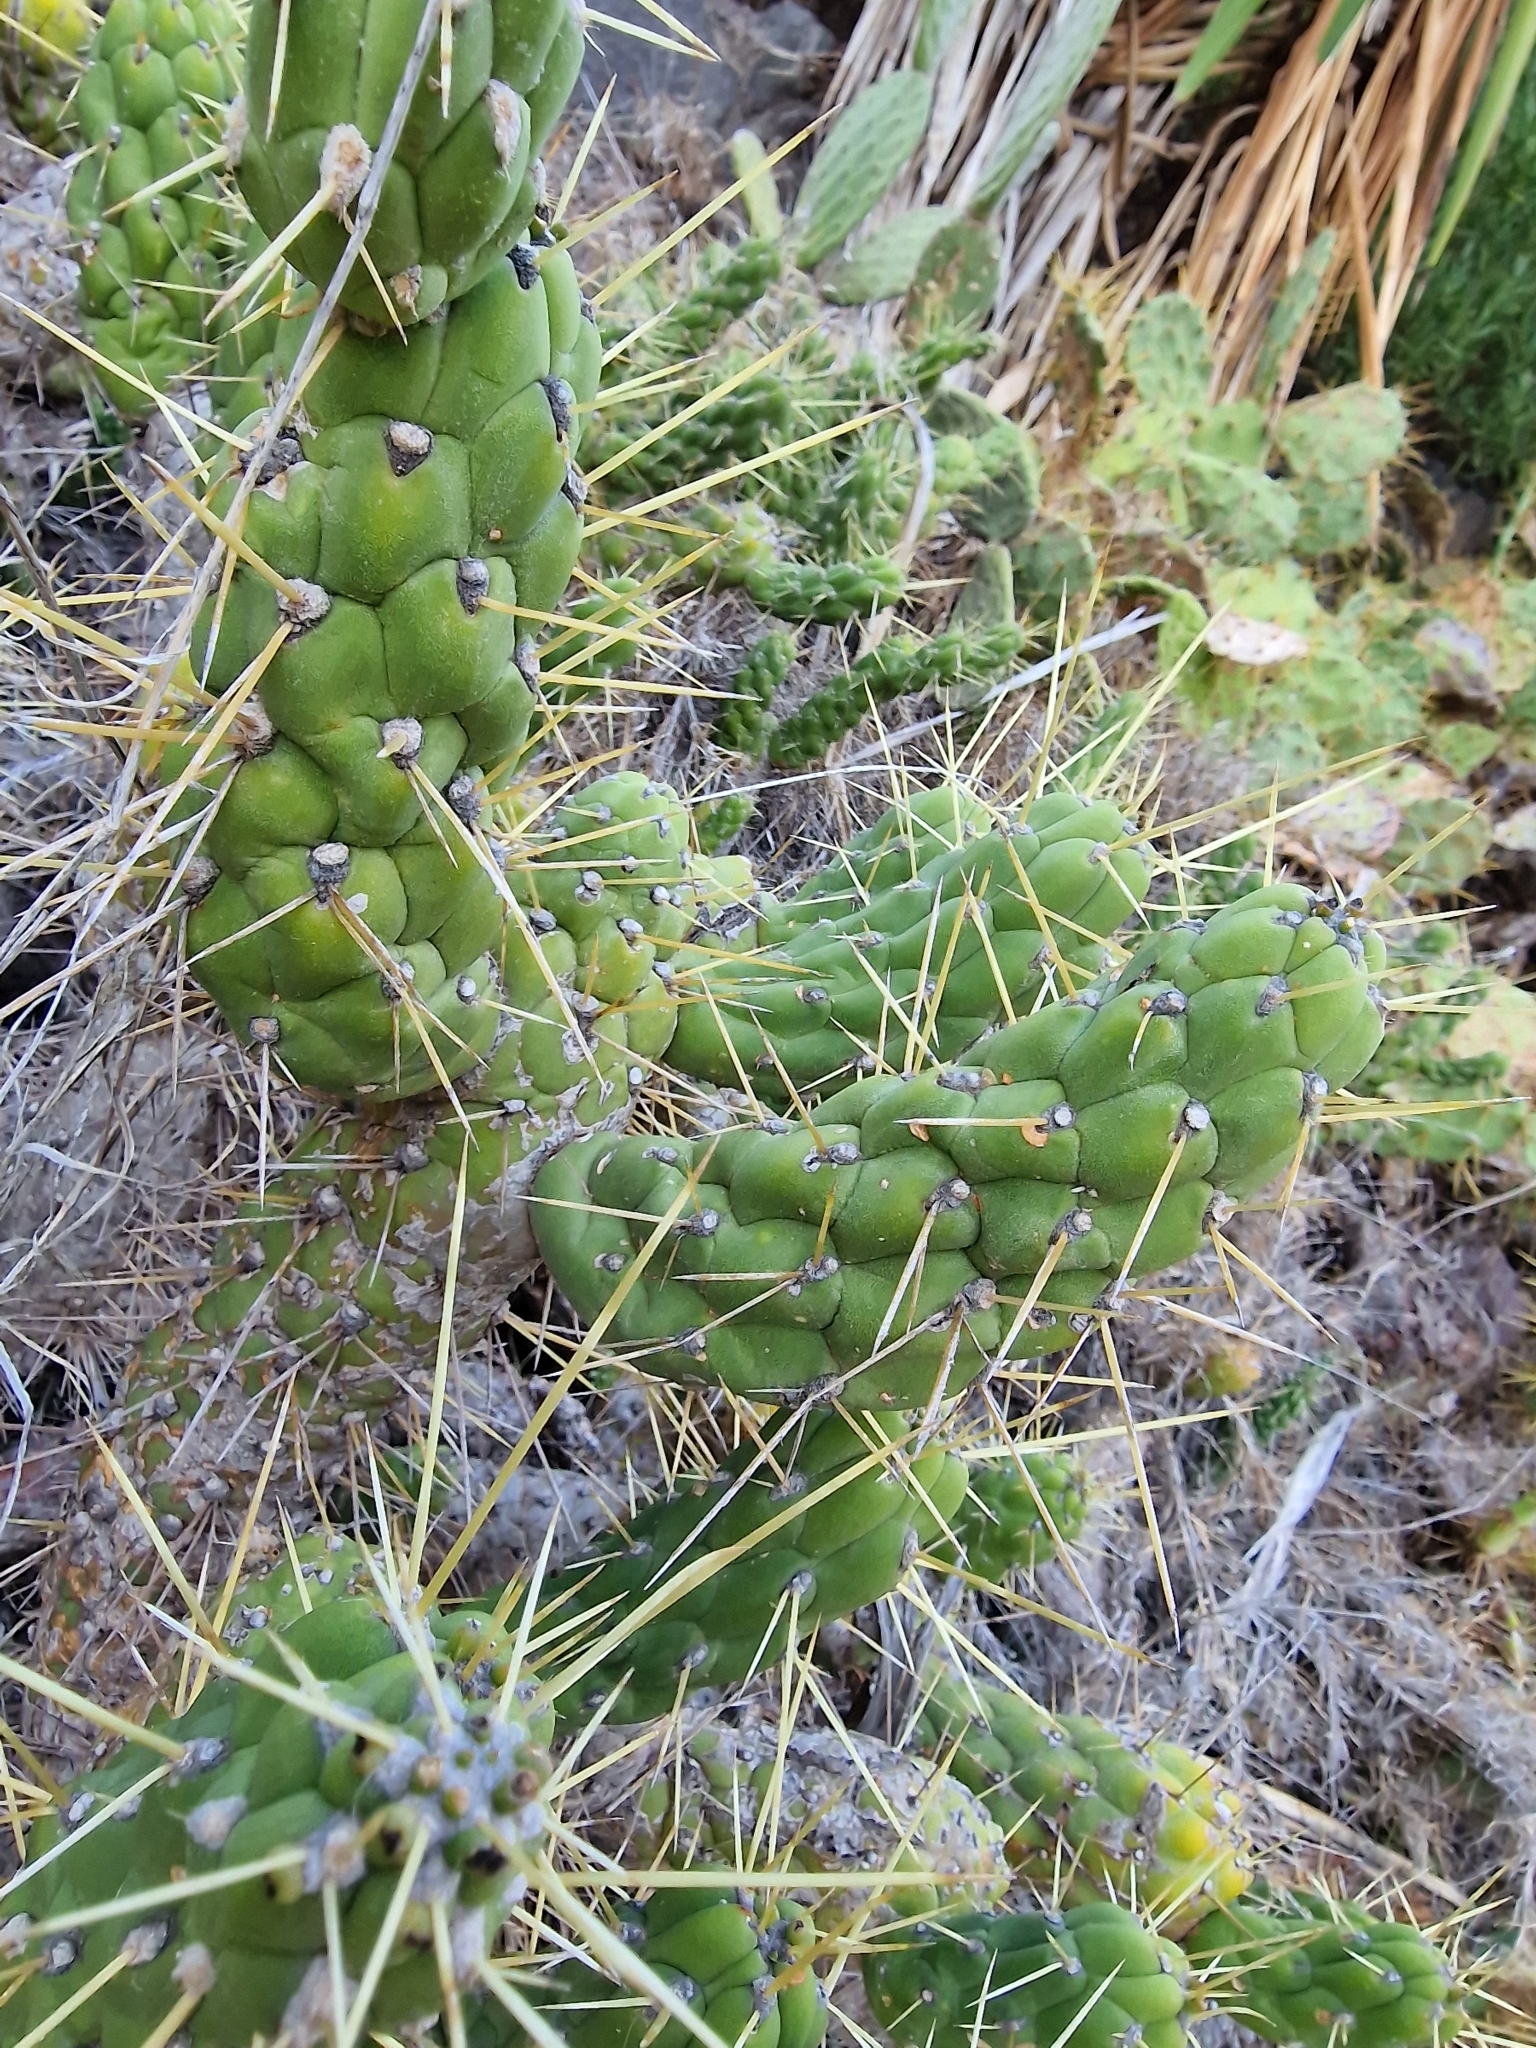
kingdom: Plantae
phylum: Tracheophyta
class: Magnoliopsida
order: Caryophyllales
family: Cactaceae
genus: Austrocylindropuntia
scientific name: Austrocylindropuntia subulata
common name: Eve's needle cactus
